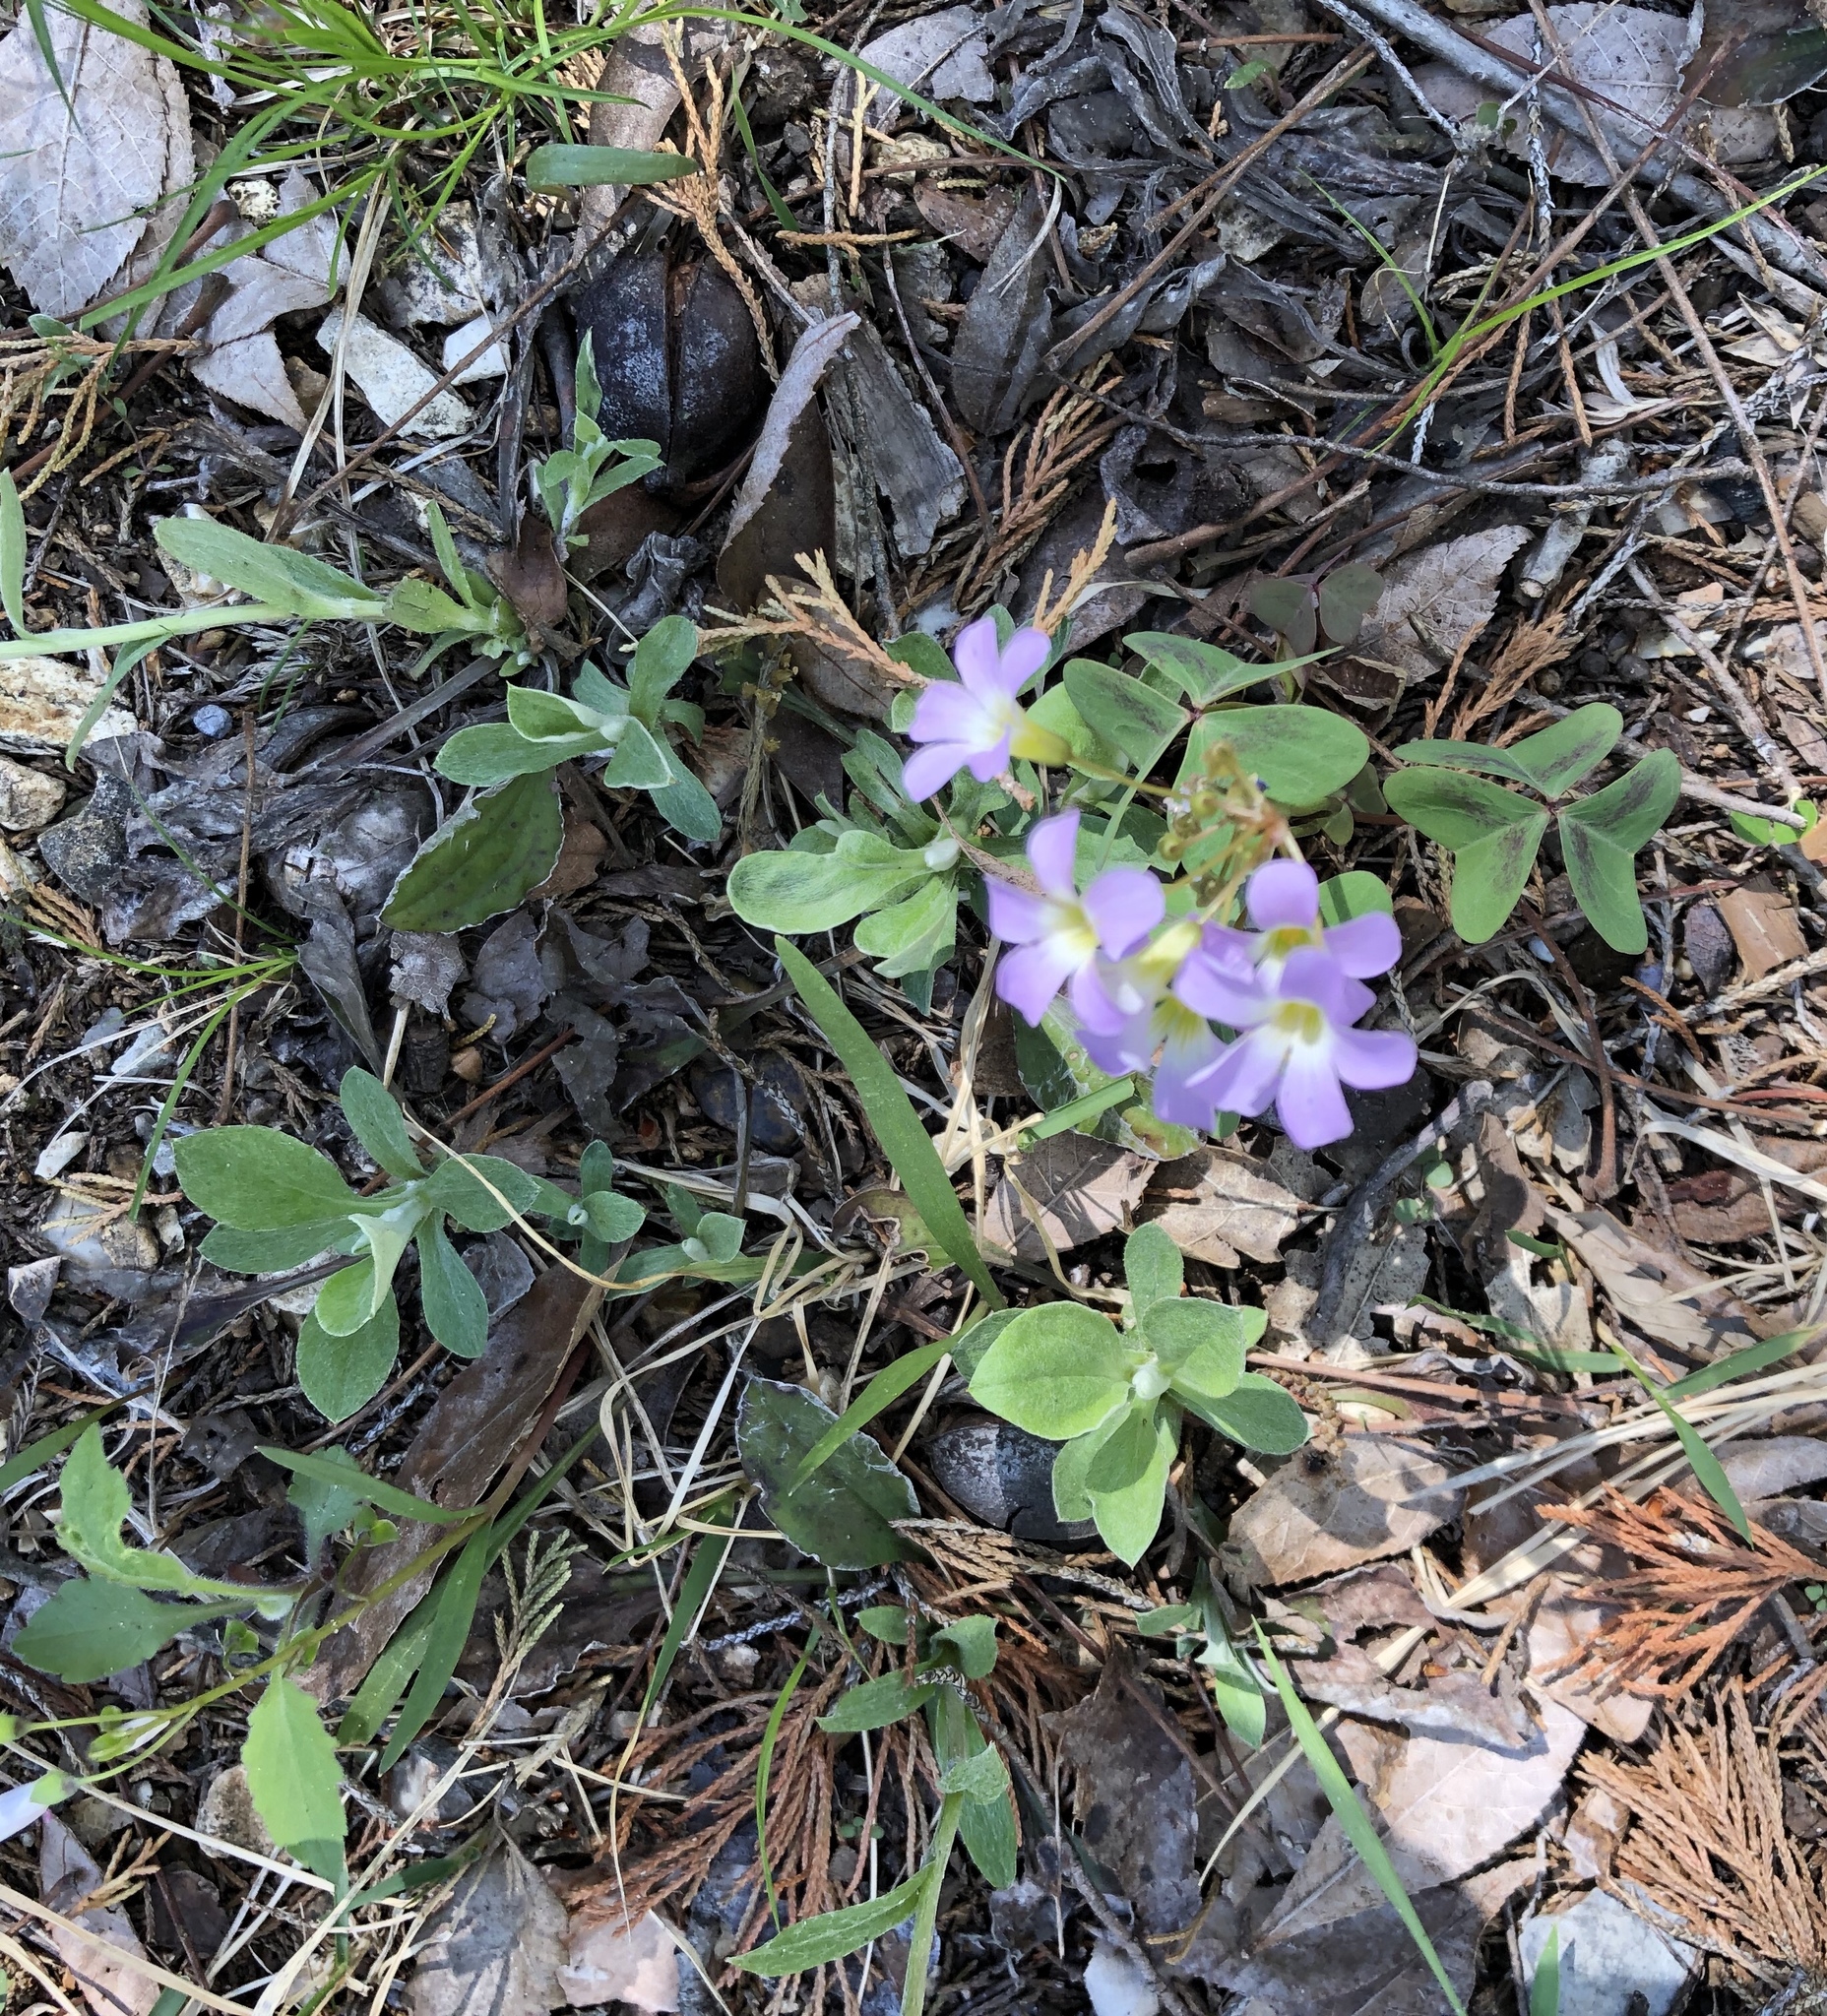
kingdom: Plantae
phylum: Tracheophyta
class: Magnoliopsida
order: Oxalidales
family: Oxalidaceae
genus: Oxalis
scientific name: Oxalis violacea
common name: Violet wood-sorrel
